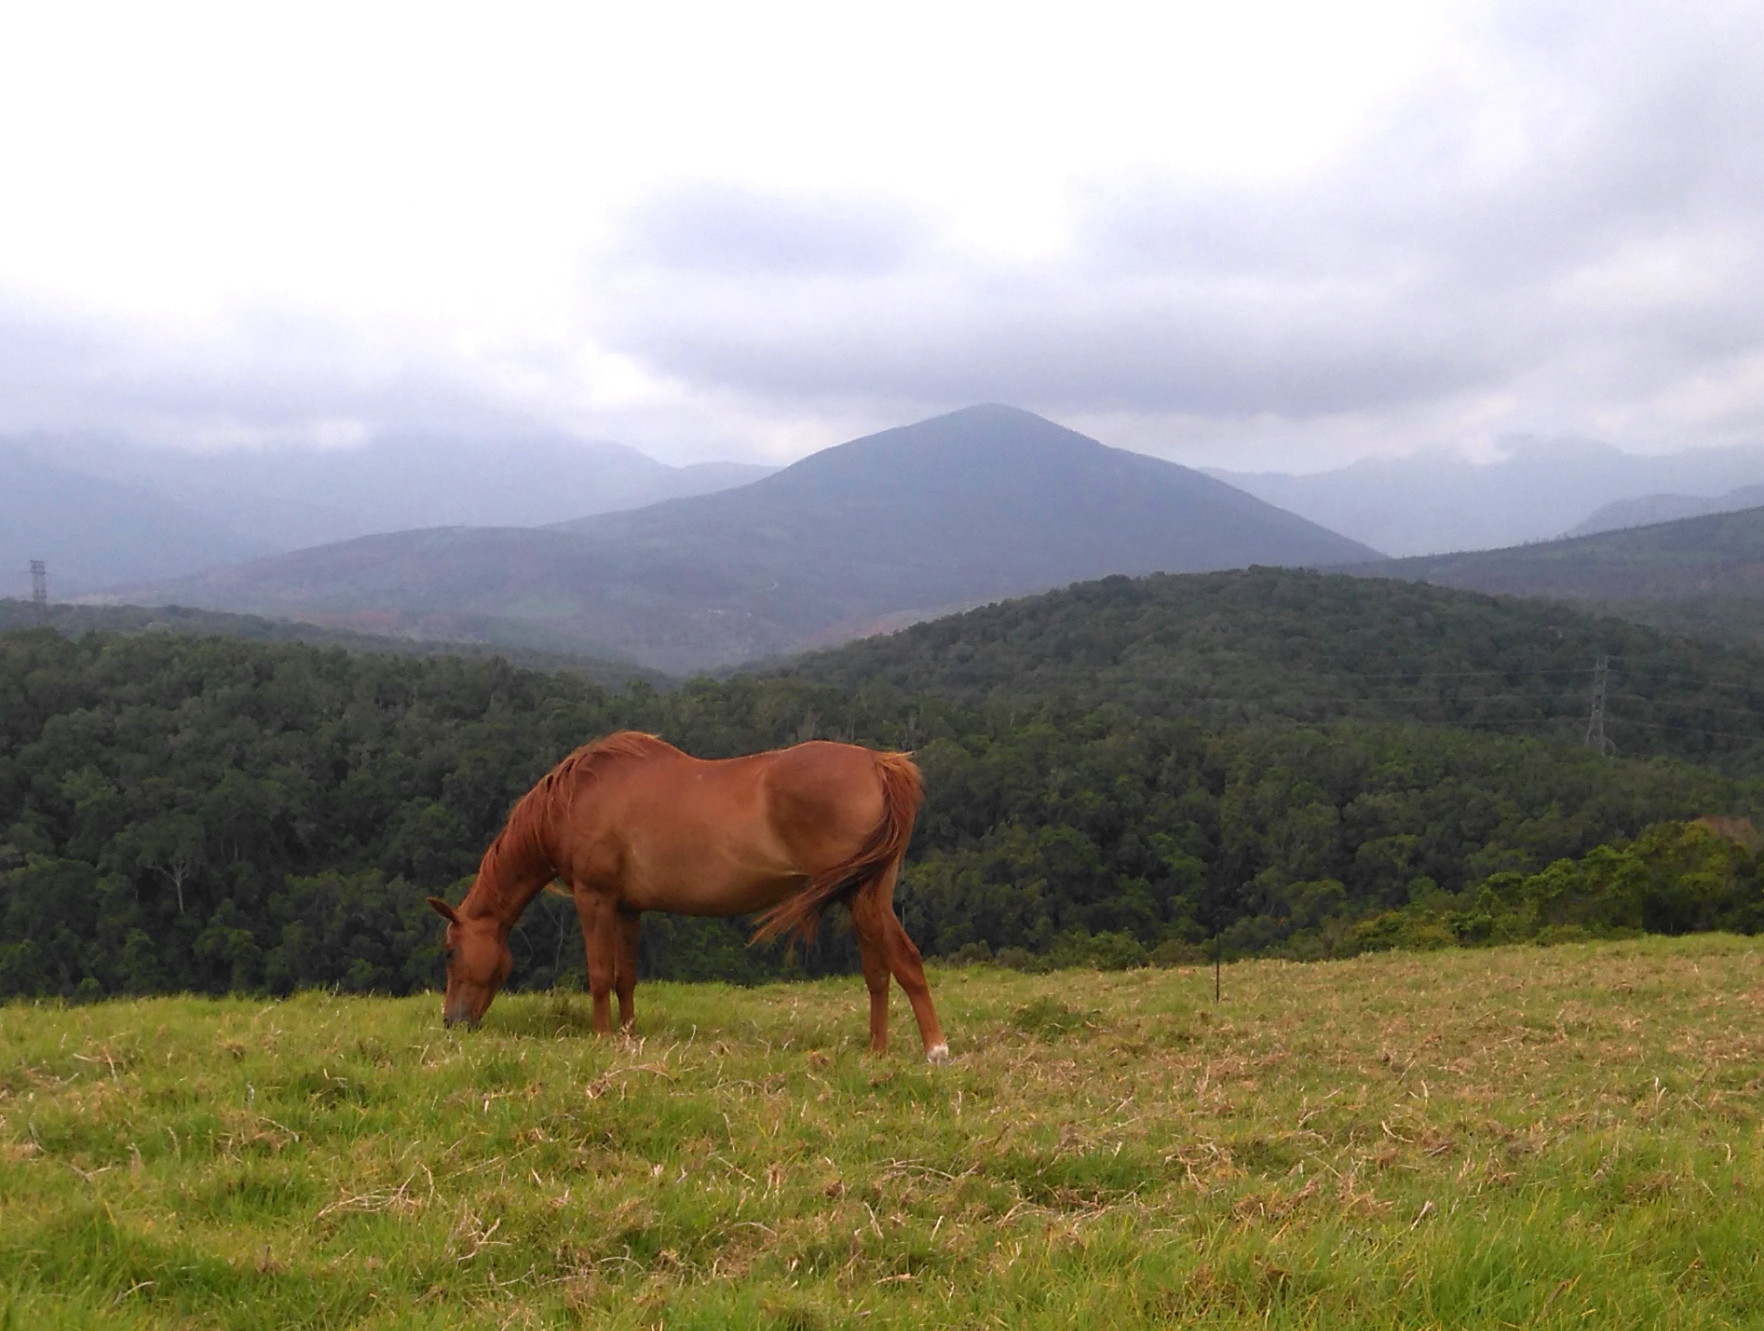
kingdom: Plantae
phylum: Tracheophyta
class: Liliopsida
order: Poales
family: Poaceae
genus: Cenchrus
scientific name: Cenchrus clandestinus
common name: Kikuyugrass
